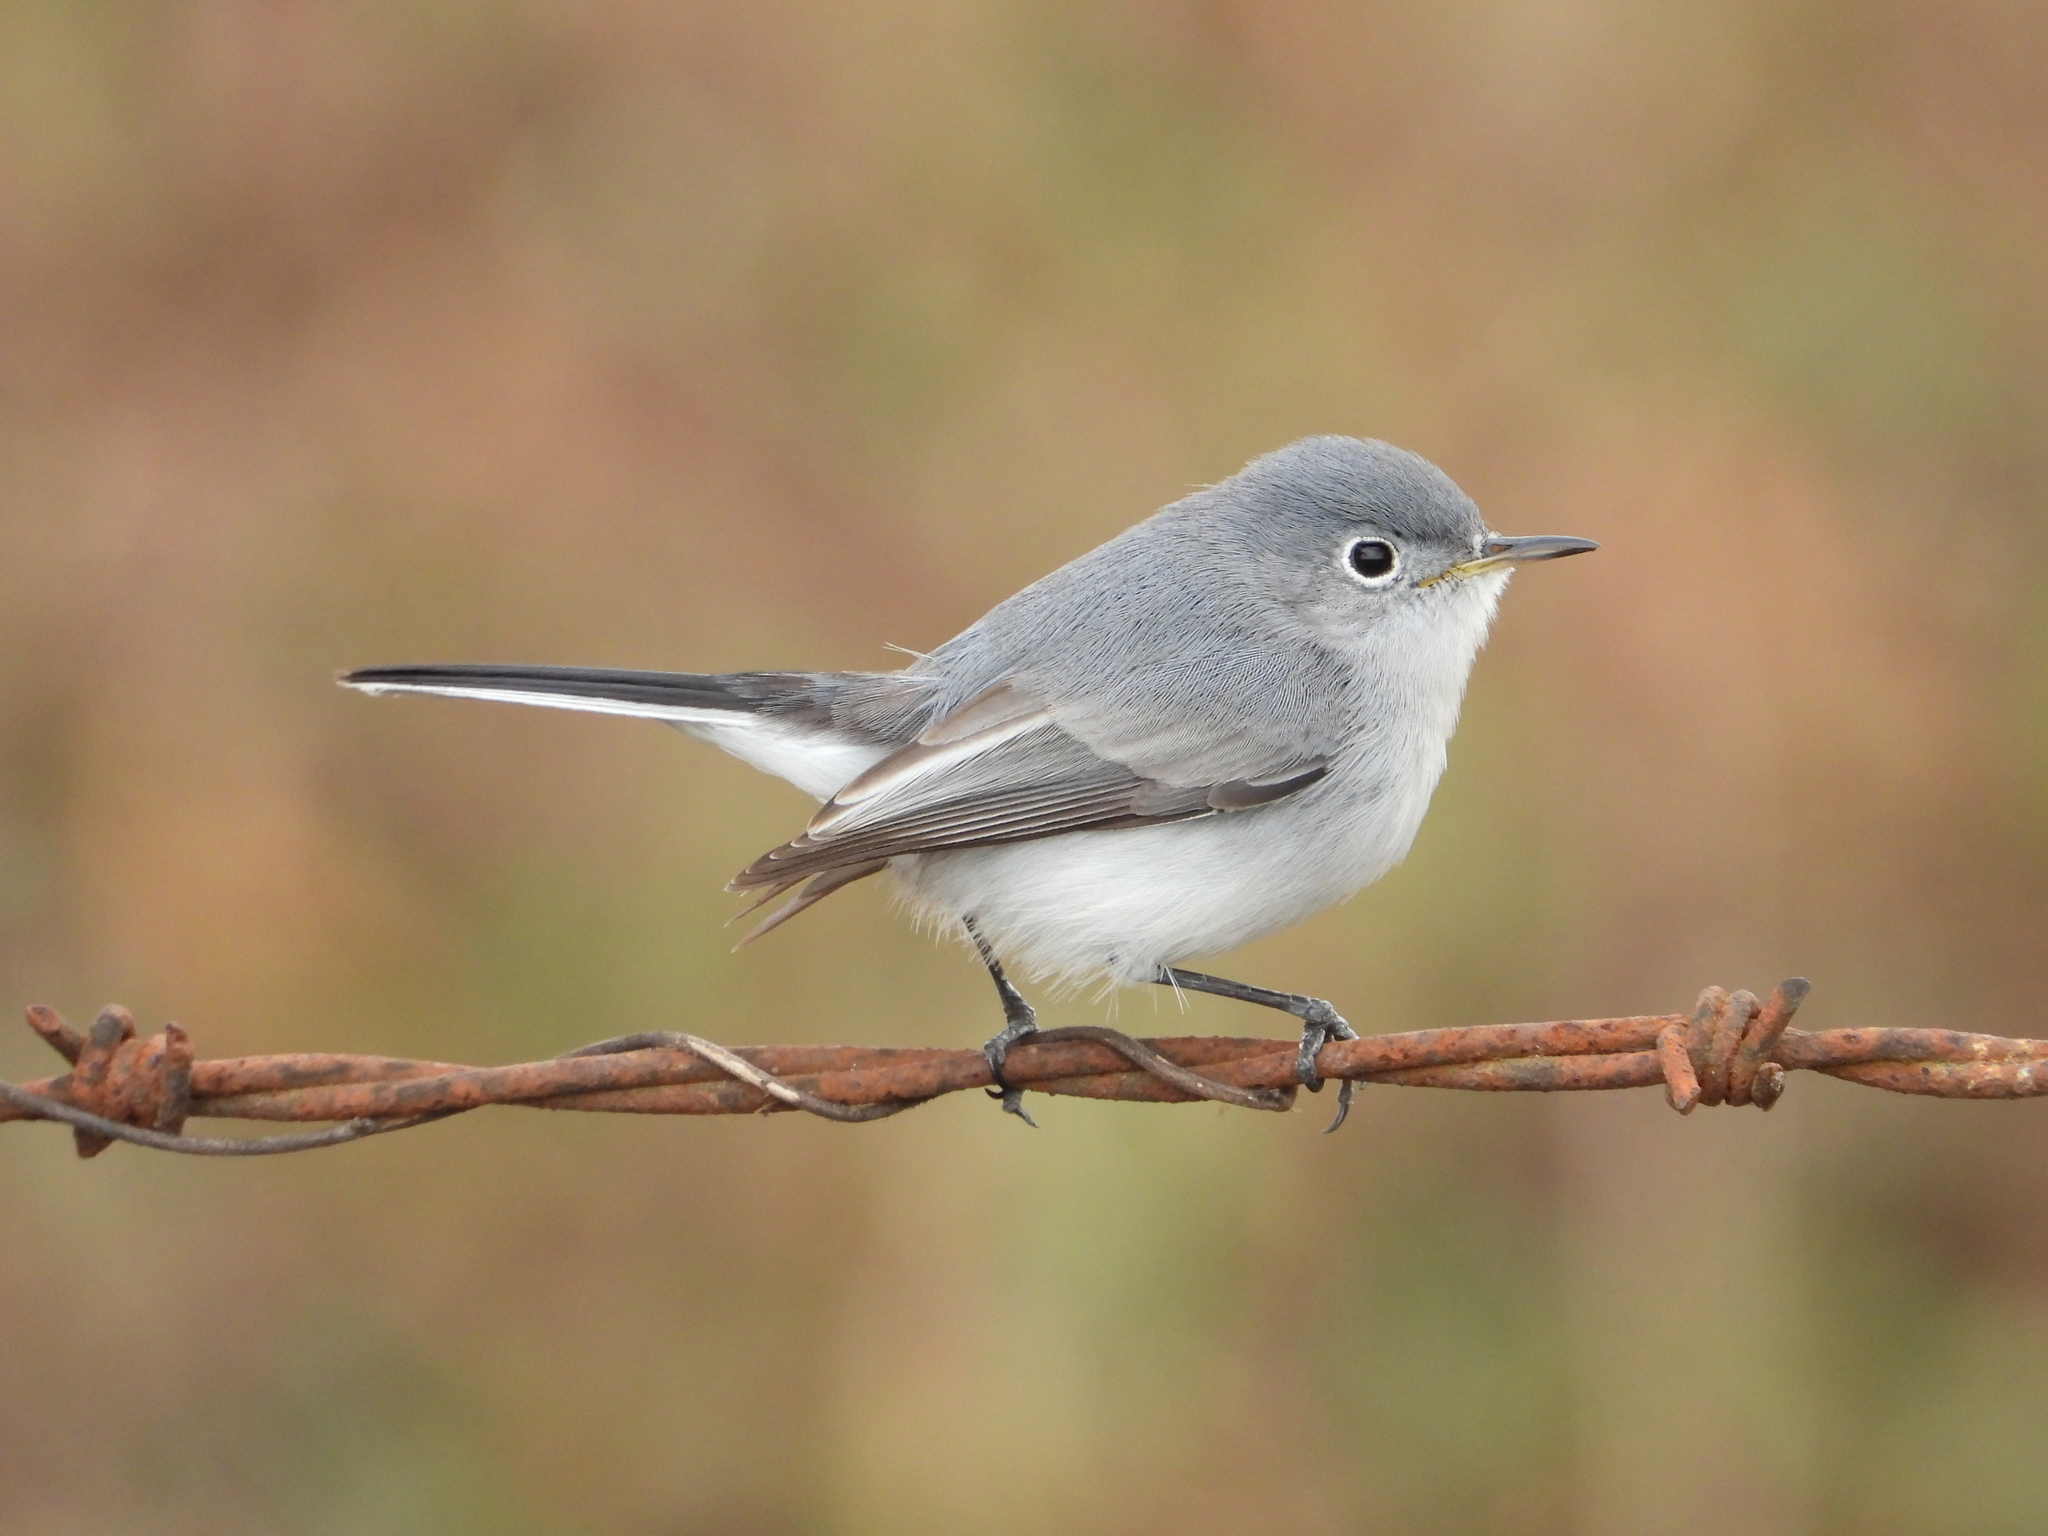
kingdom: Animalia
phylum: Chordata
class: Aves
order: Passeriformes
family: Polioptilidae
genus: Polioptila
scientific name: Polioptila caerulea
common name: Blue-gray gnatcatcher
